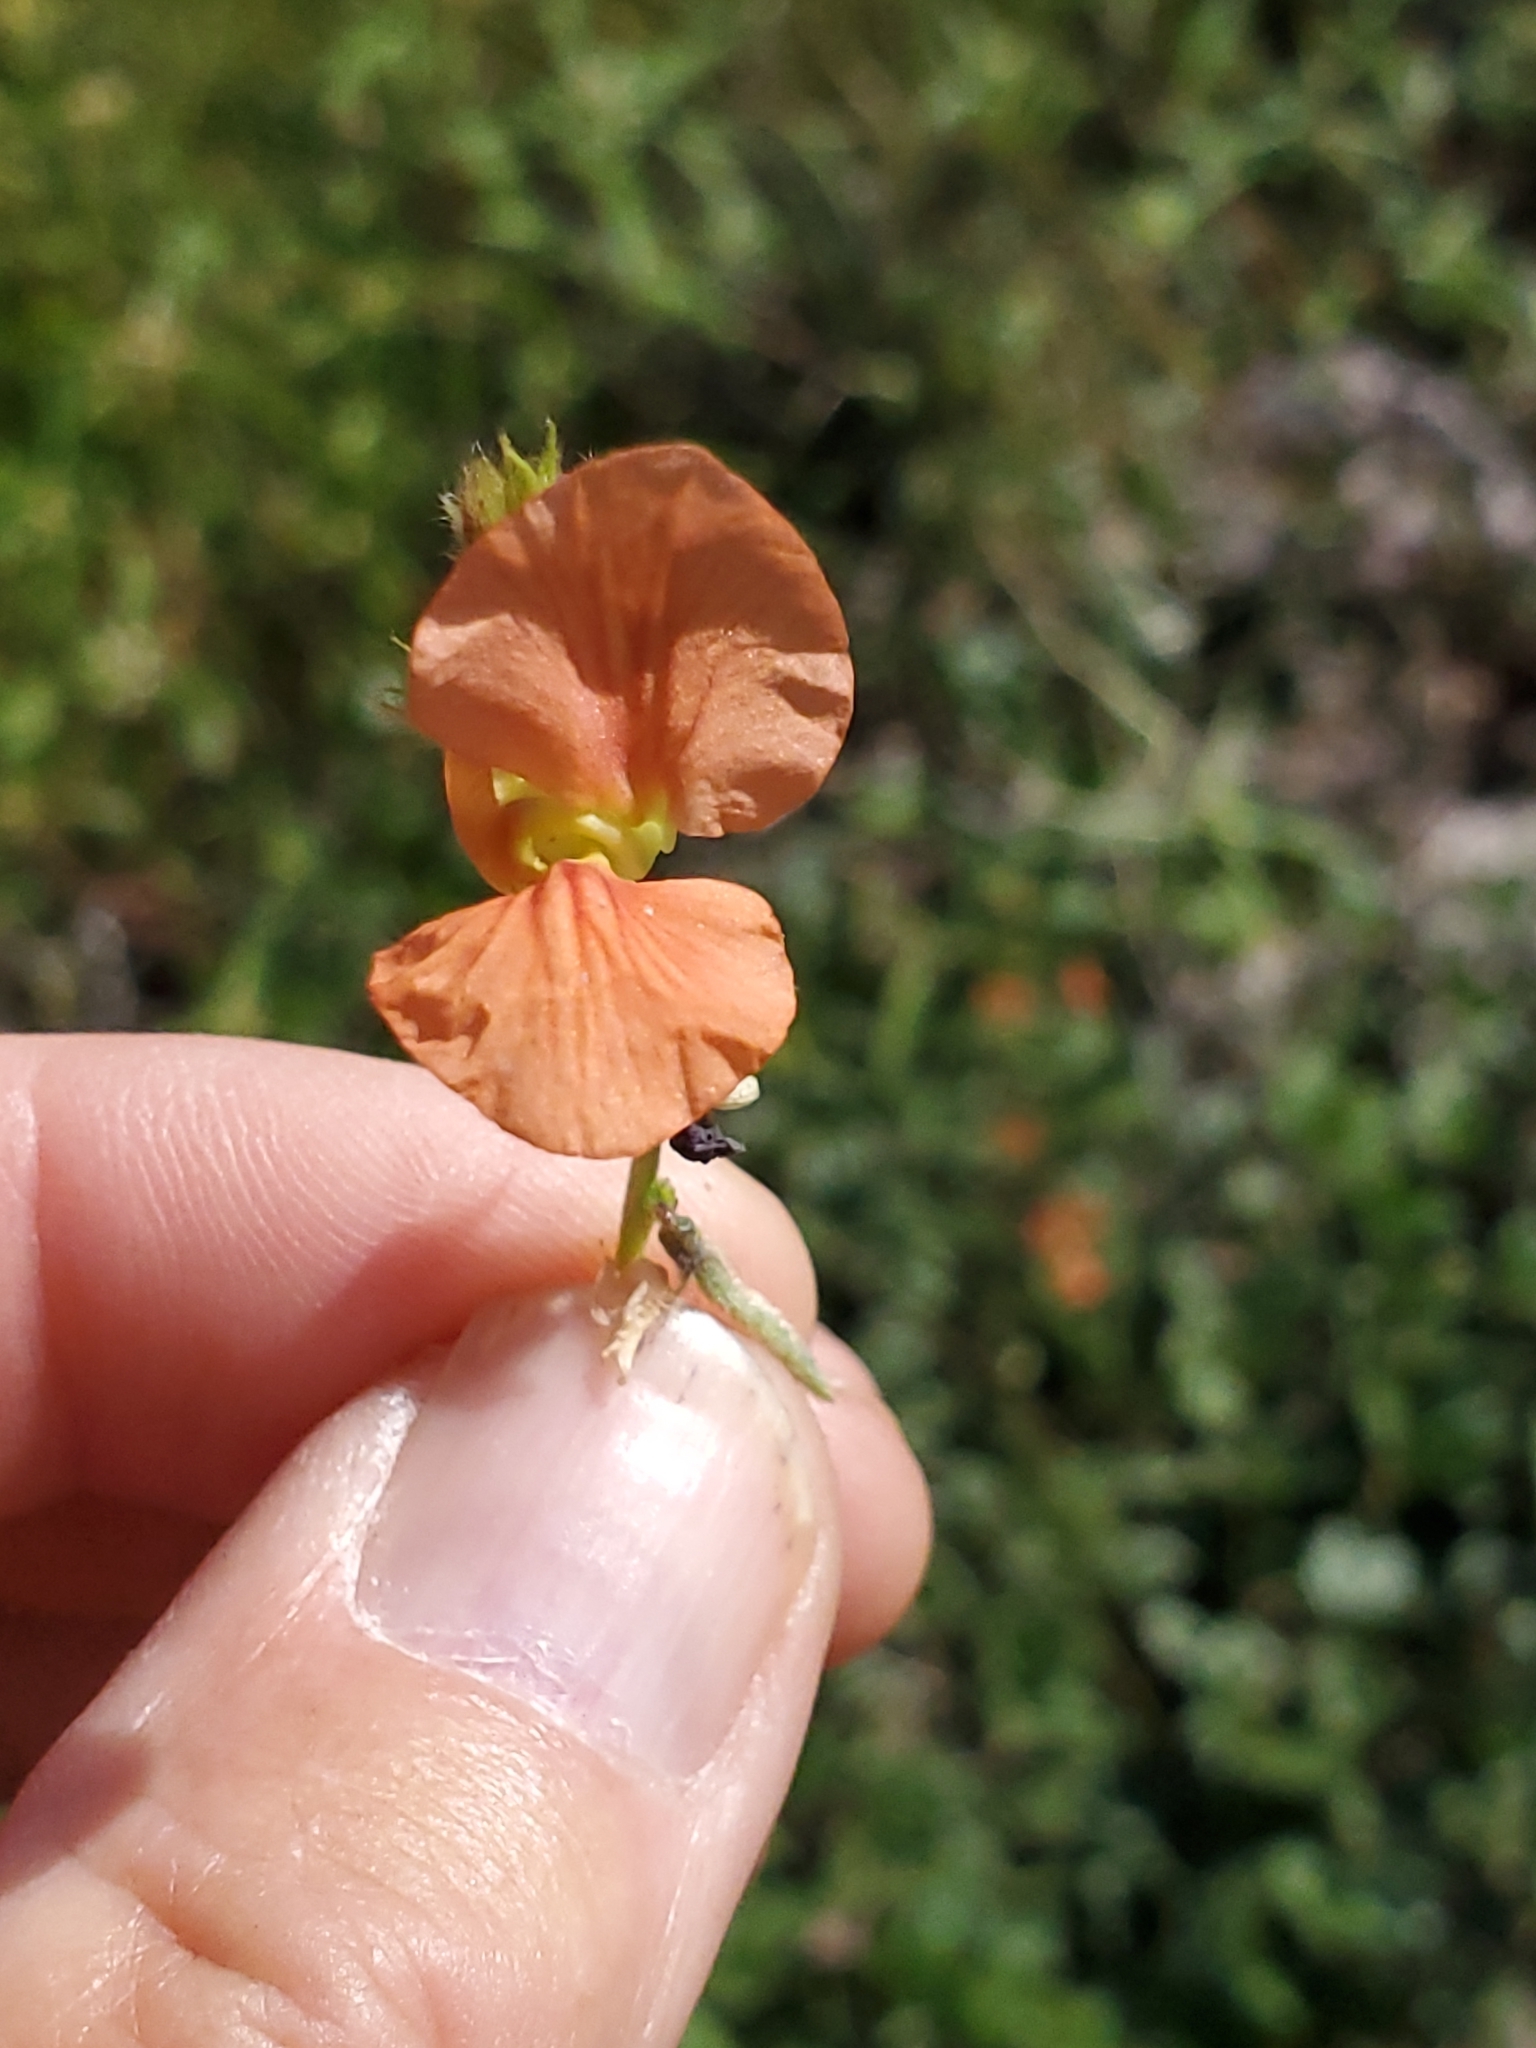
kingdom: Plantae
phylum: Tracheophyta
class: Magnoliopsida
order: Fabales
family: Fabaceae
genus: Macroptilium
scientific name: Macroptilium gibbosifolium
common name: Variableleaf bushbean
